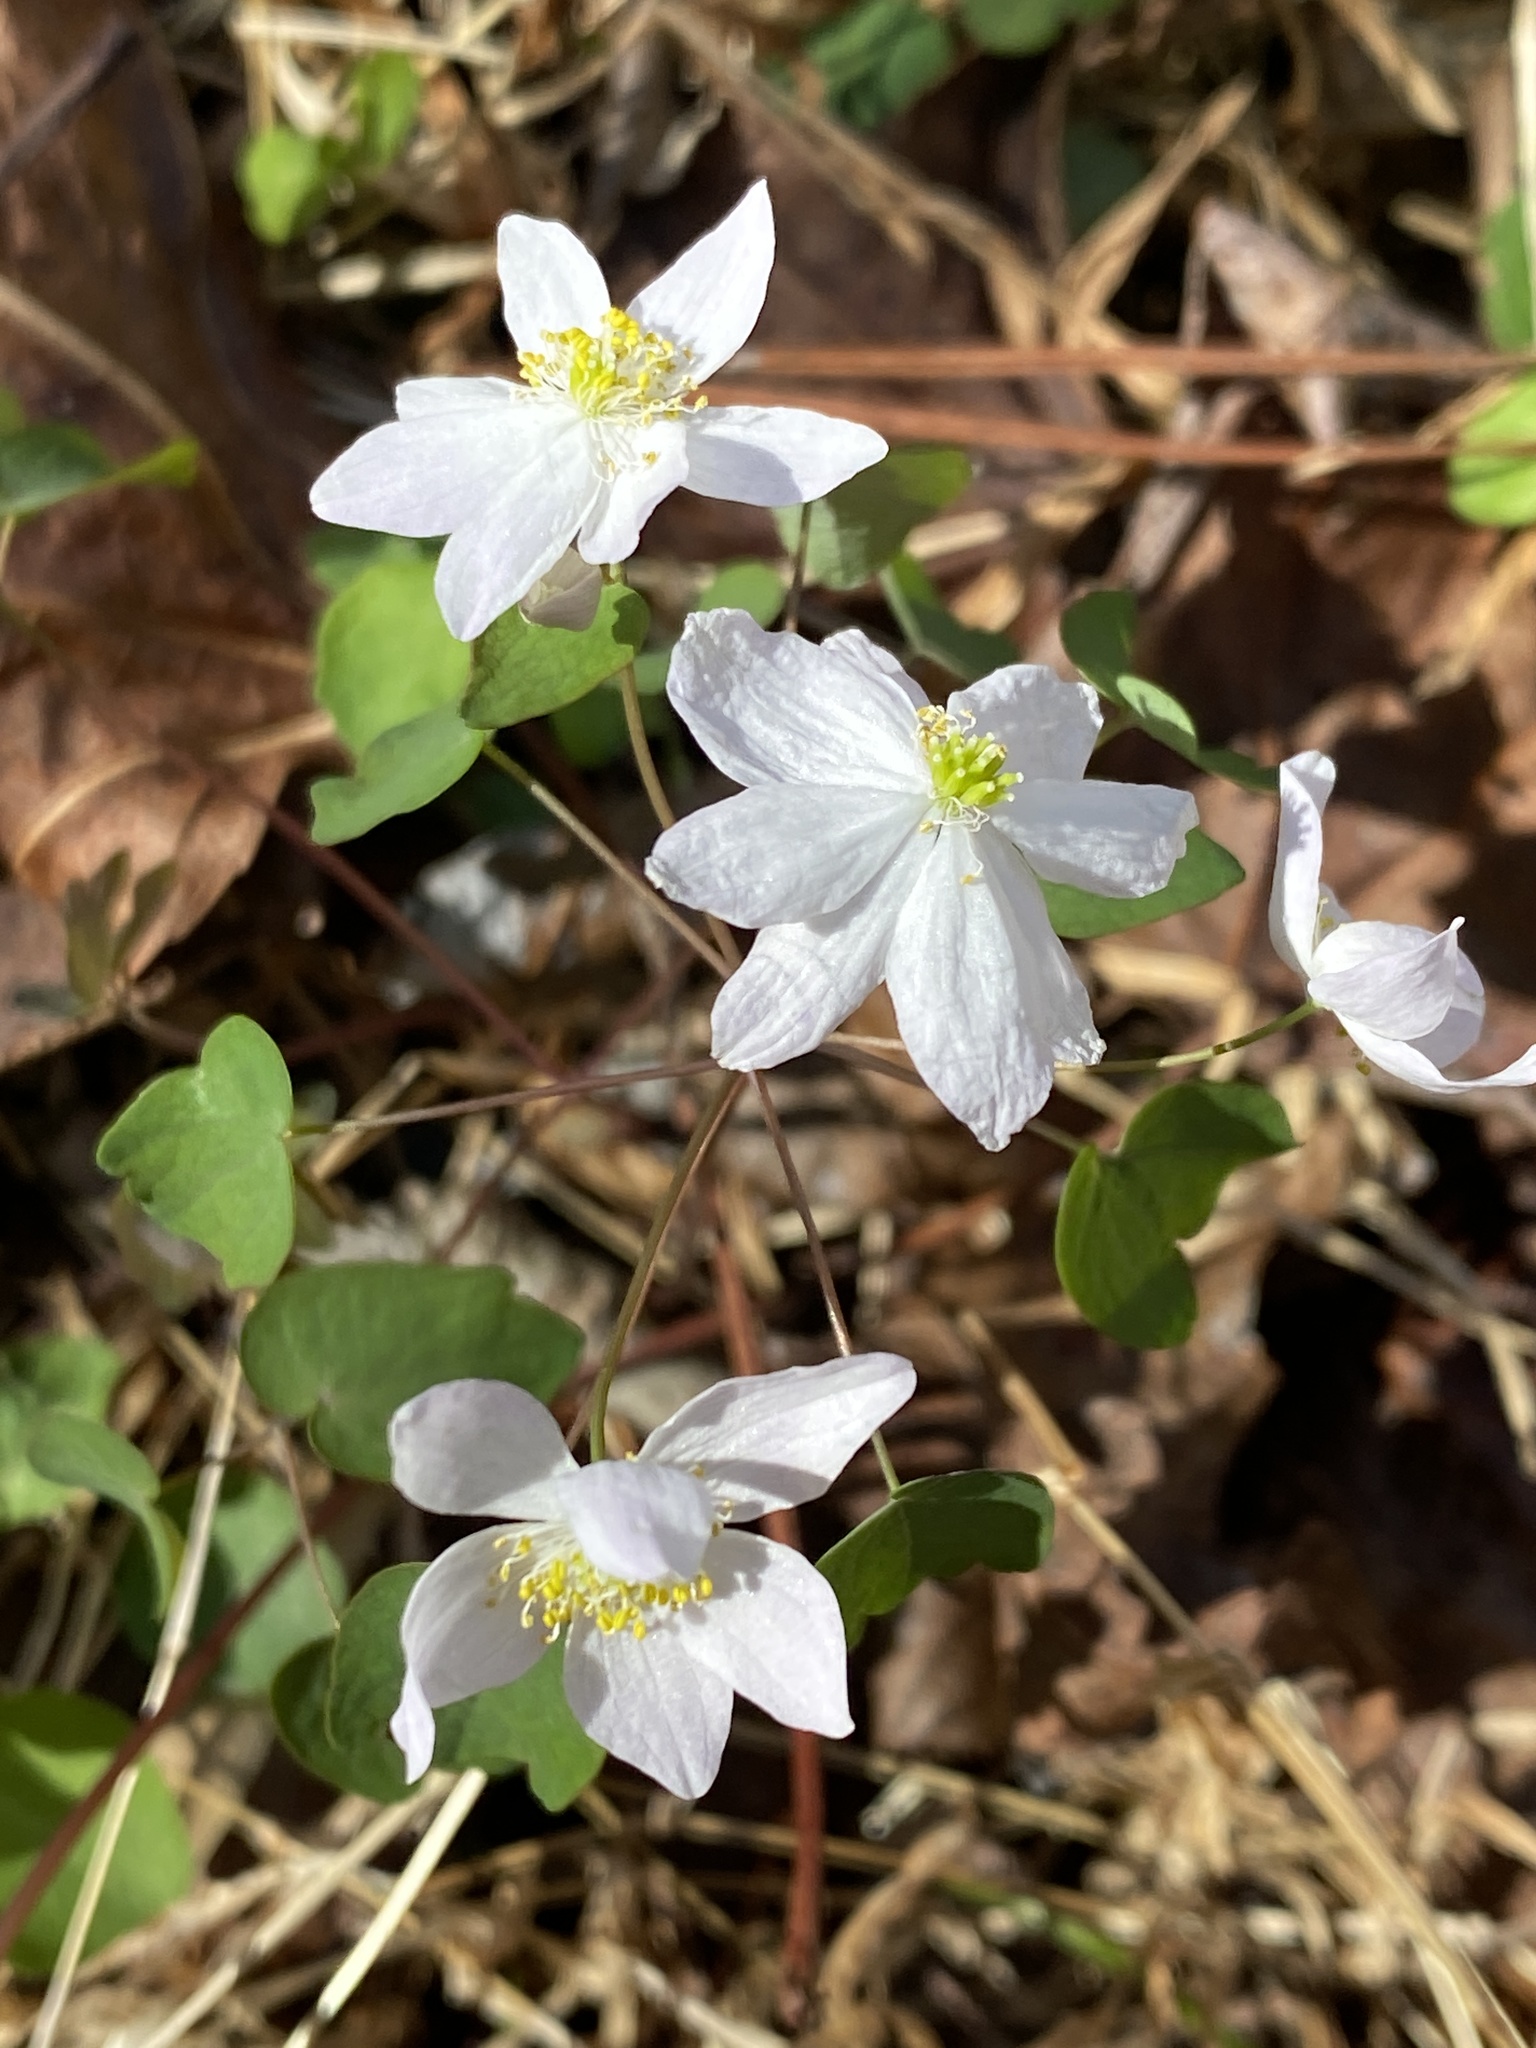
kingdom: Plantae
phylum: Tracheophyta
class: Magnoliopsida
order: Ranunculales
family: Ranunculaceae
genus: Thalictrum
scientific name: Thalictrum thalictroides
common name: Rue-anemone
